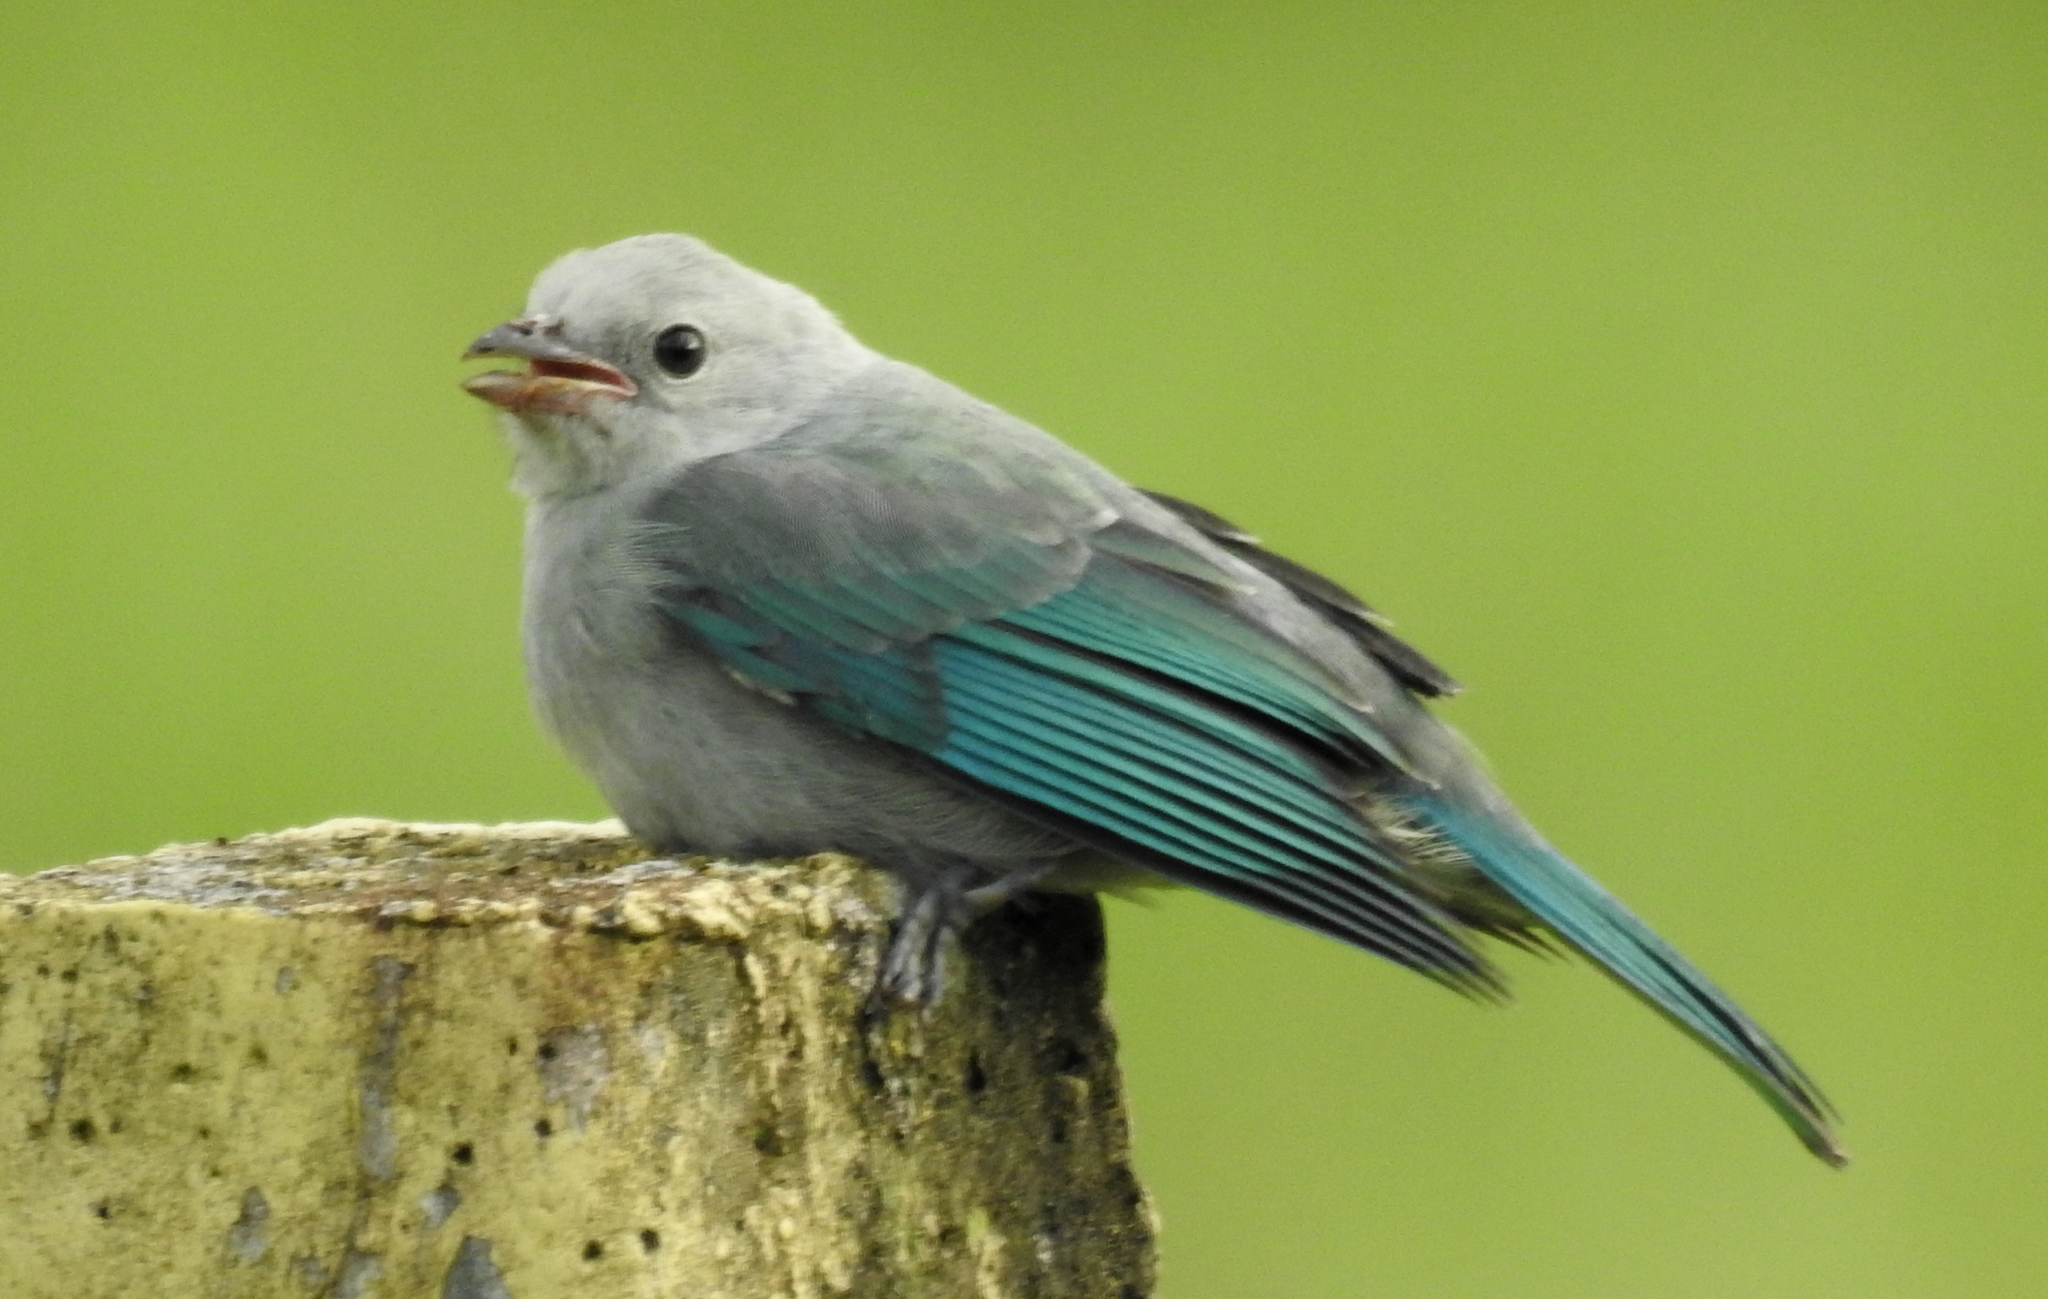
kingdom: Animalia
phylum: Chordata
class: Aves
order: Passeriformes
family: Thraupidae
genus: Thraupis
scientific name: Thraupis episcopus
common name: Blue-grey tanager
